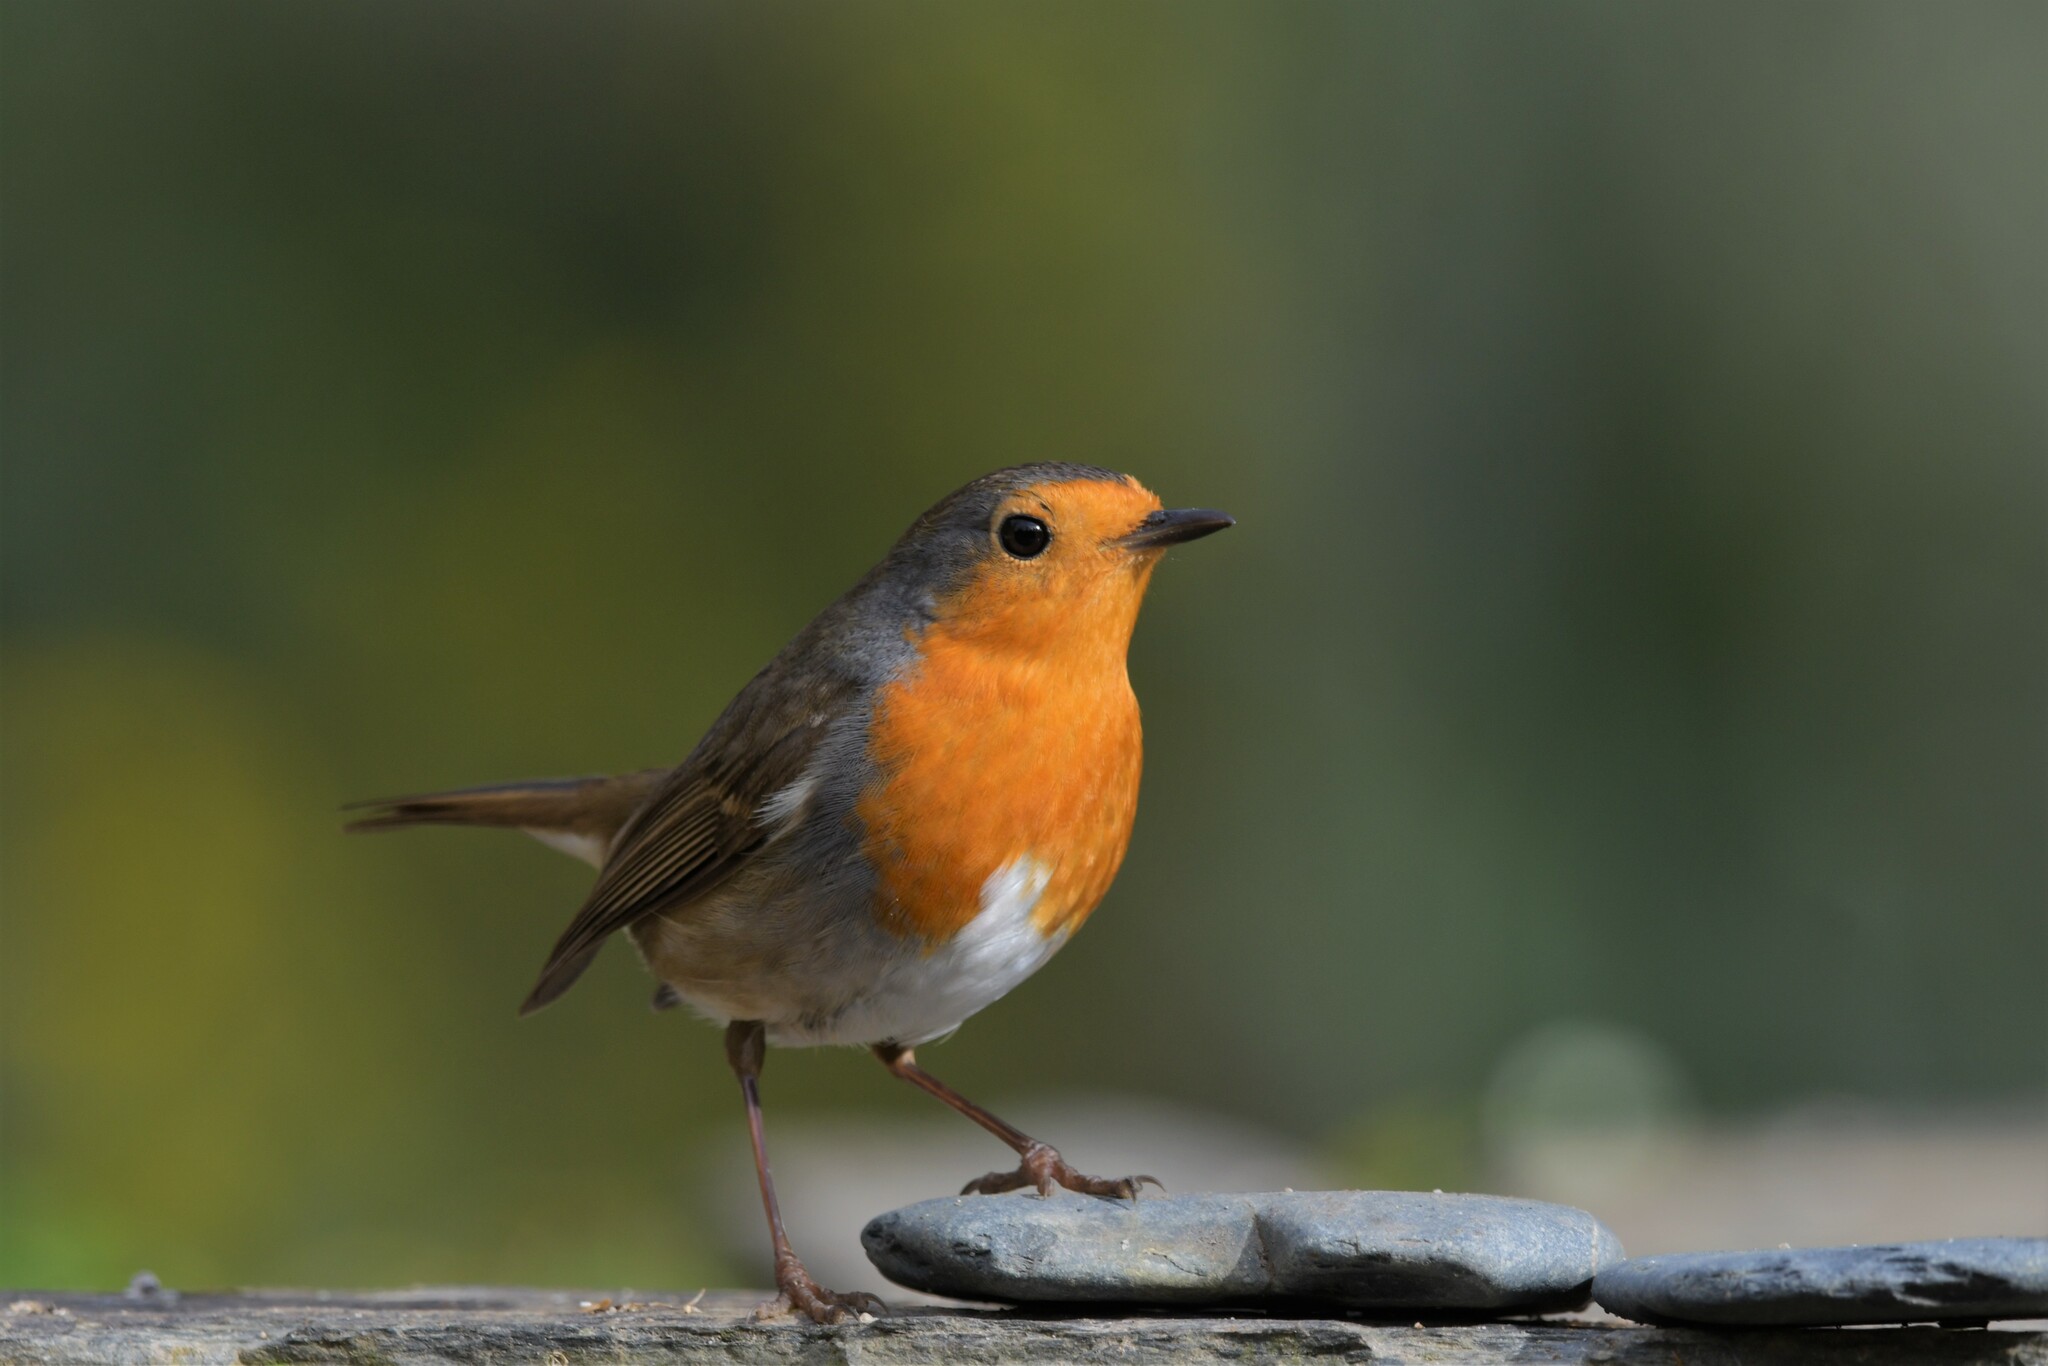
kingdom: Animalia
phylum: Chordata
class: Aves
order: Passeriformes
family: Muscicapidae
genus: Erithacus
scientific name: Erithacus rubecula
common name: European robin
